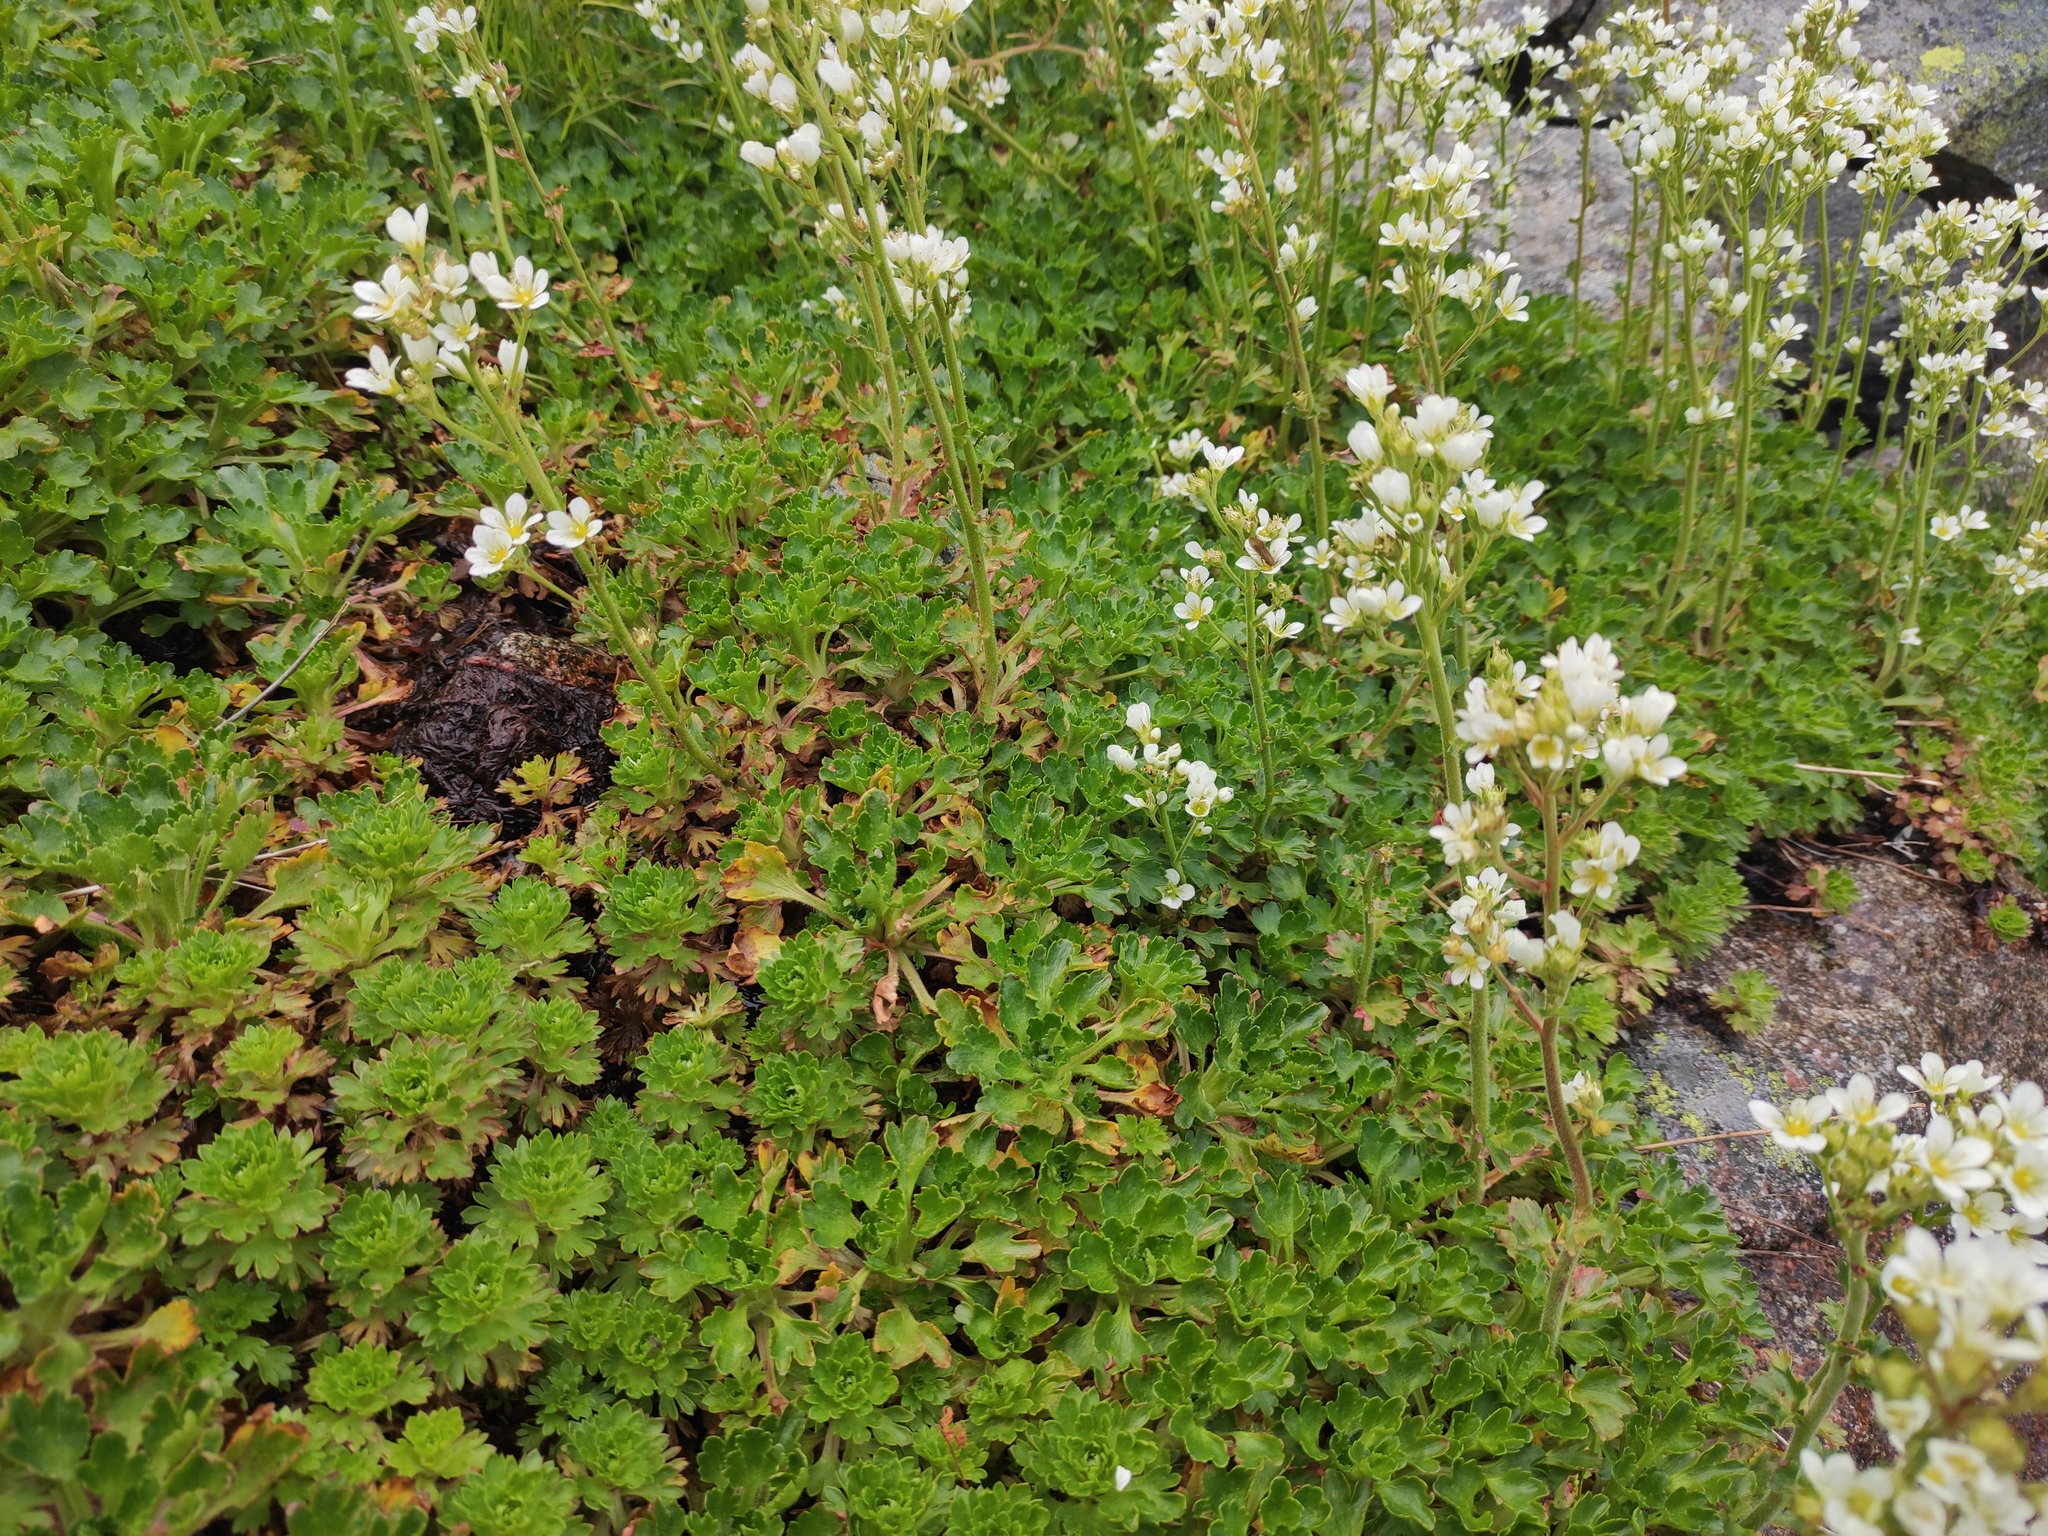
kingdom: Plantae
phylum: Tracheophyta
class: Magnoliopsida
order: Saxifragales
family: Saxifragaceae
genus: Saxifraga
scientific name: Saxifraga aquatica
